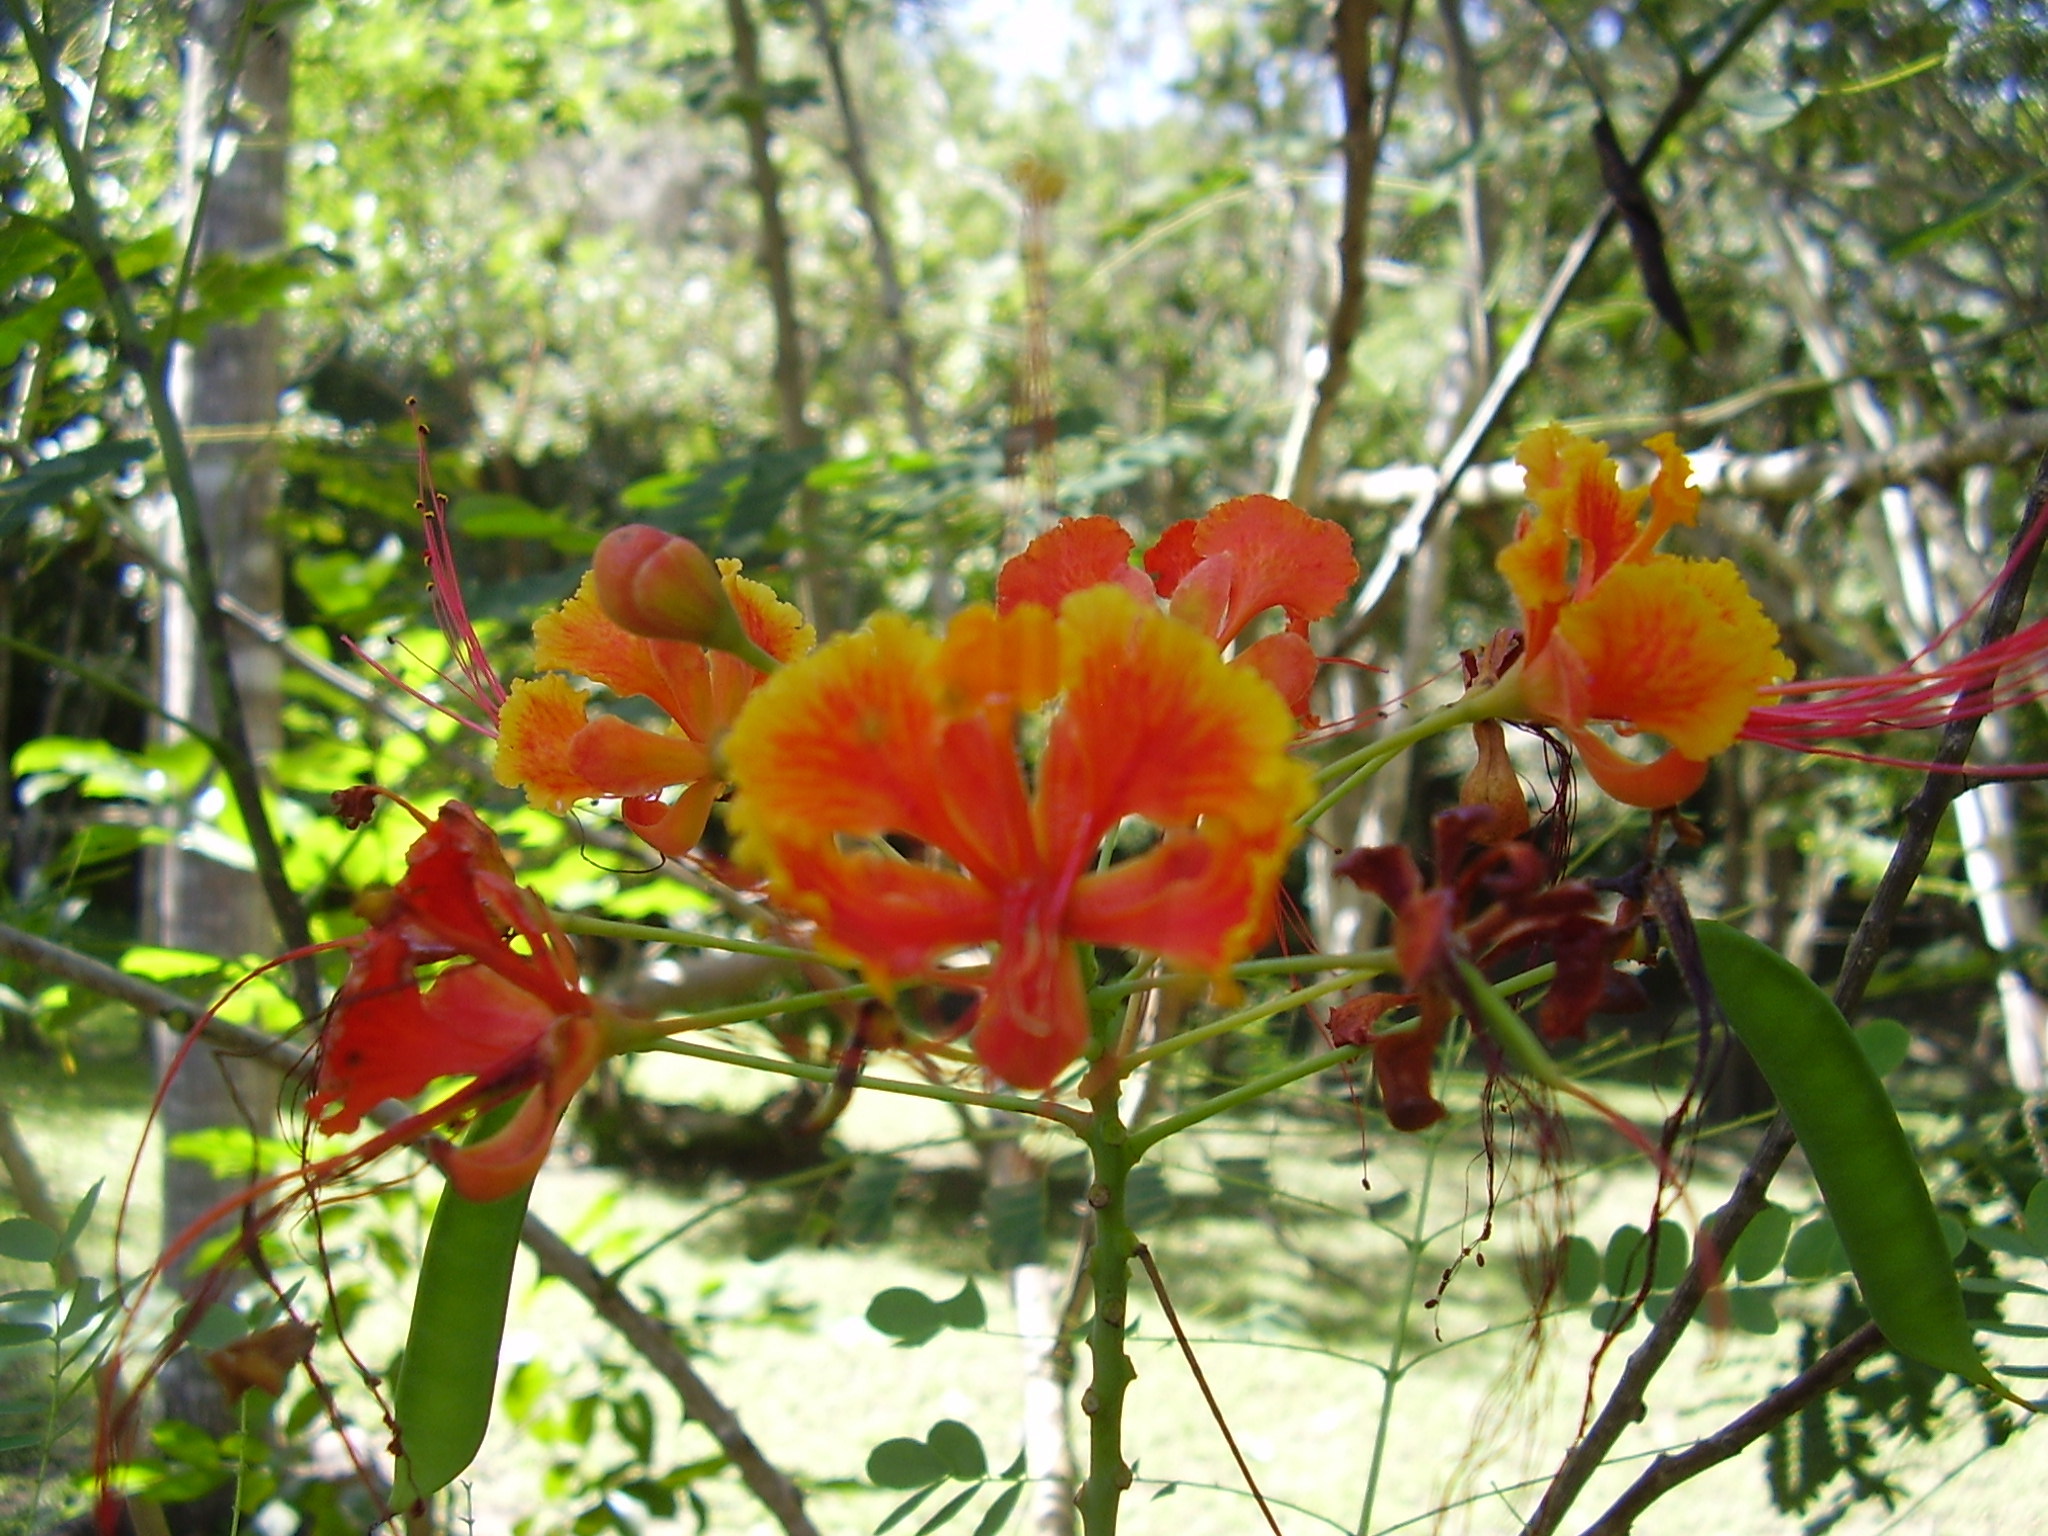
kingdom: Plantae
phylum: Tracheophyta
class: Magnoliopsida
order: Fabales
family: Fabaceae
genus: Caesalpinia
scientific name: Caesalpinia pulcherrima
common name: Pride-of-barbados
